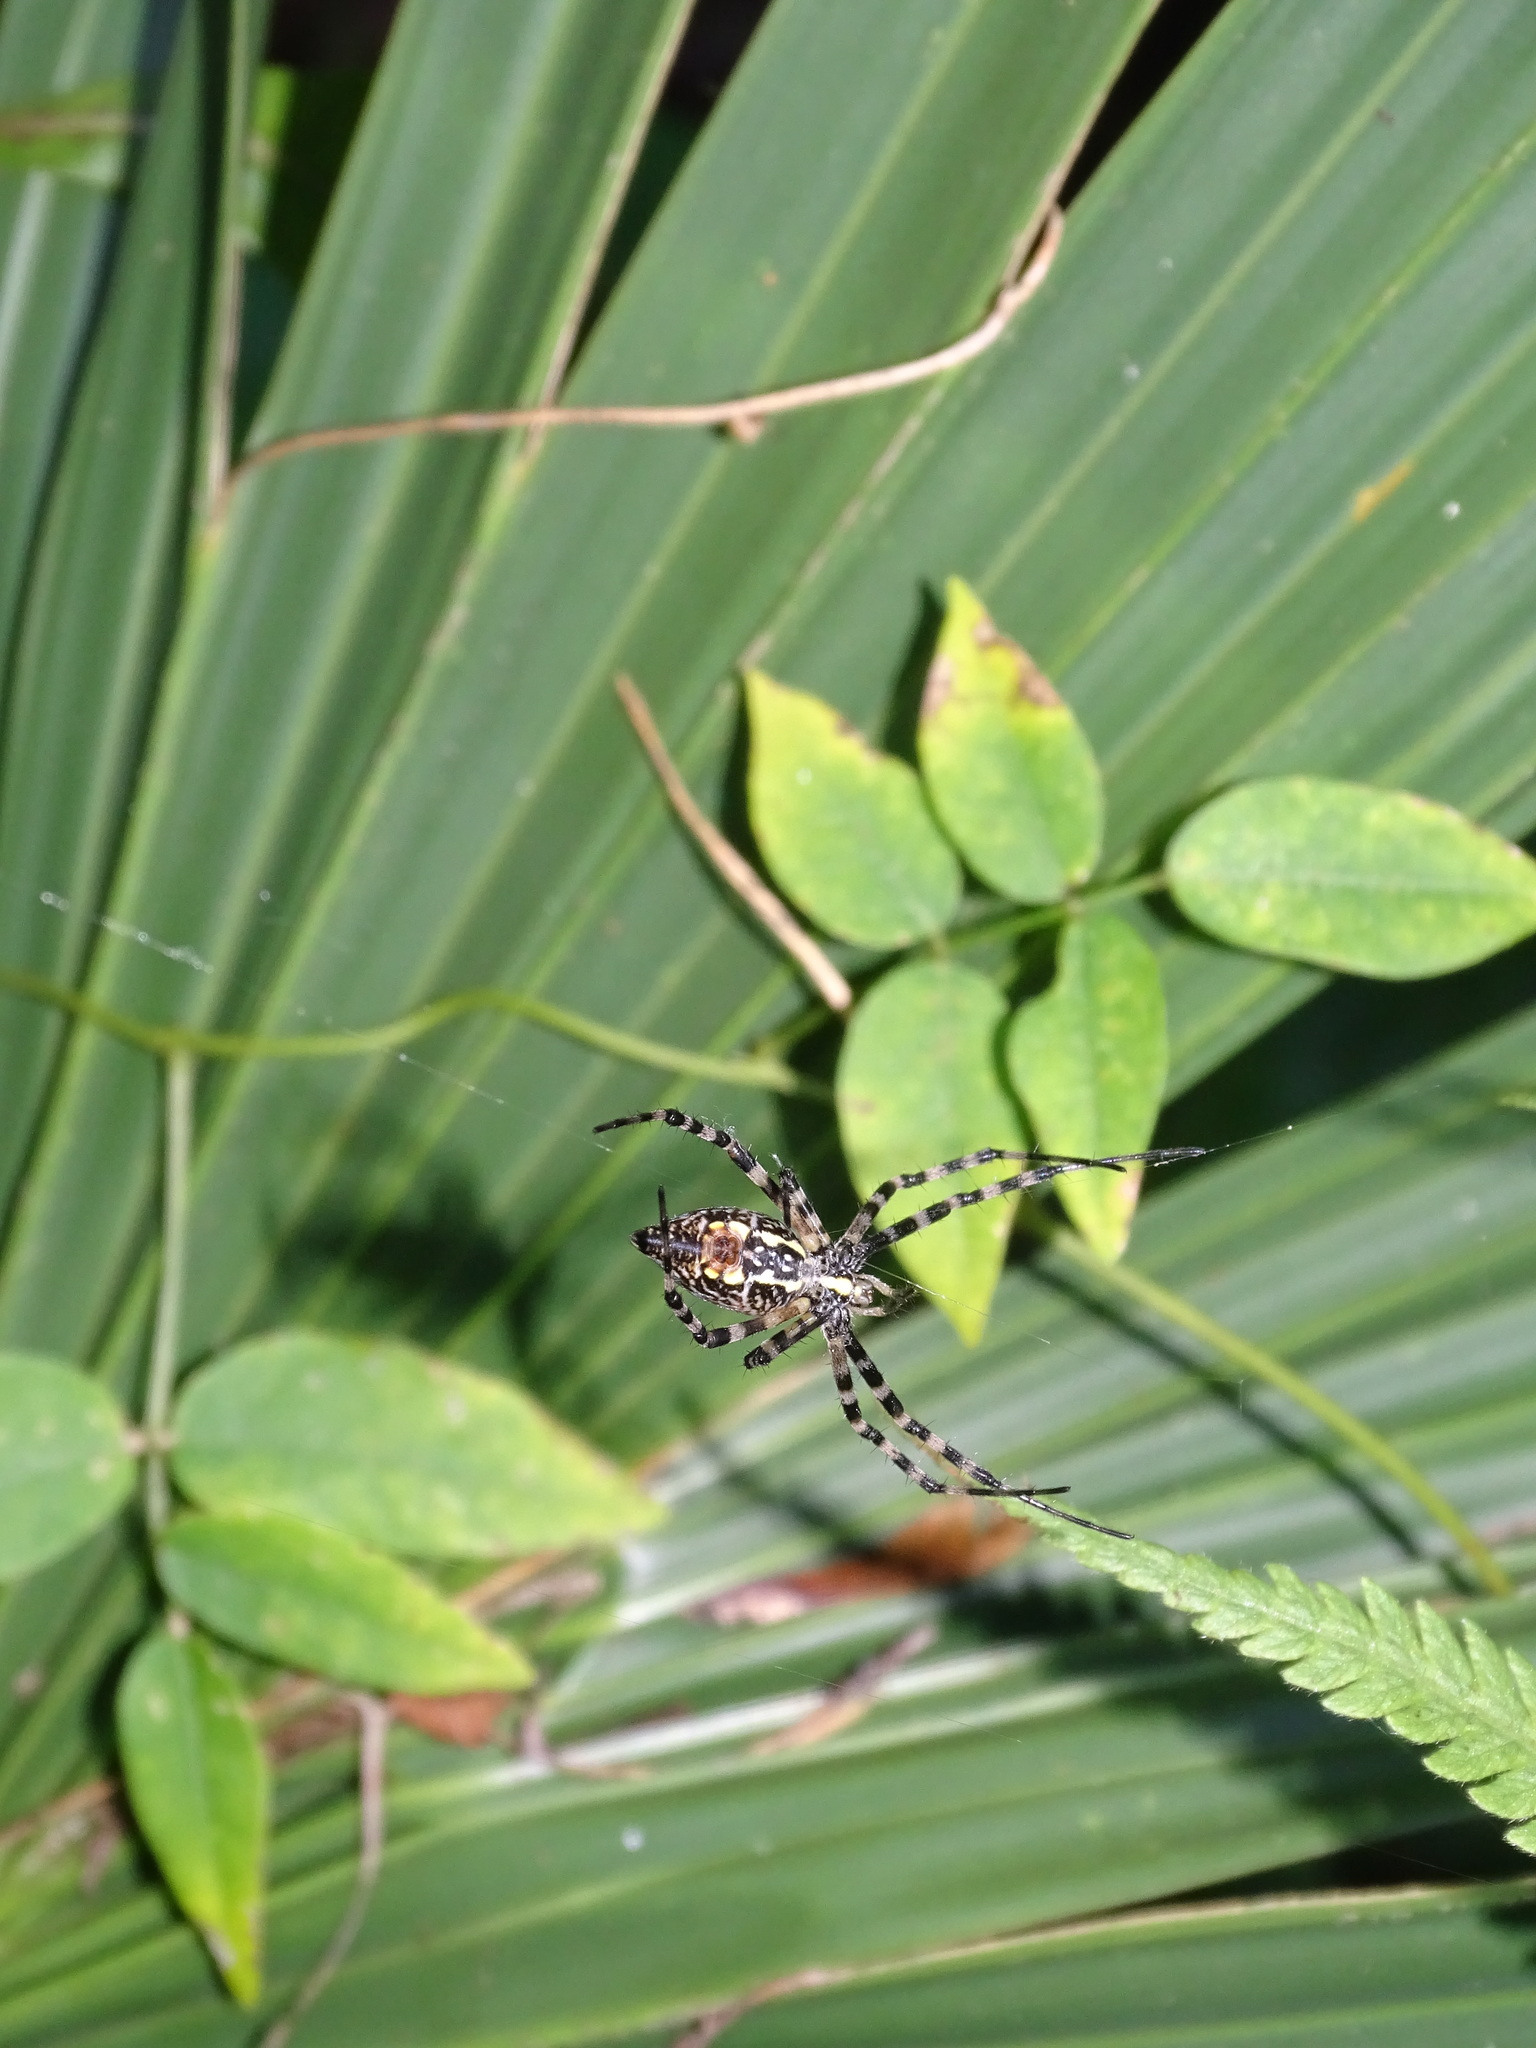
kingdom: Animalia
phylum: Arthropoda
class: Arachnida
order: Araneae
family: Araneidae
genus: Argiope
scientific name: Argiope aurantia
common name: Orb weavers
